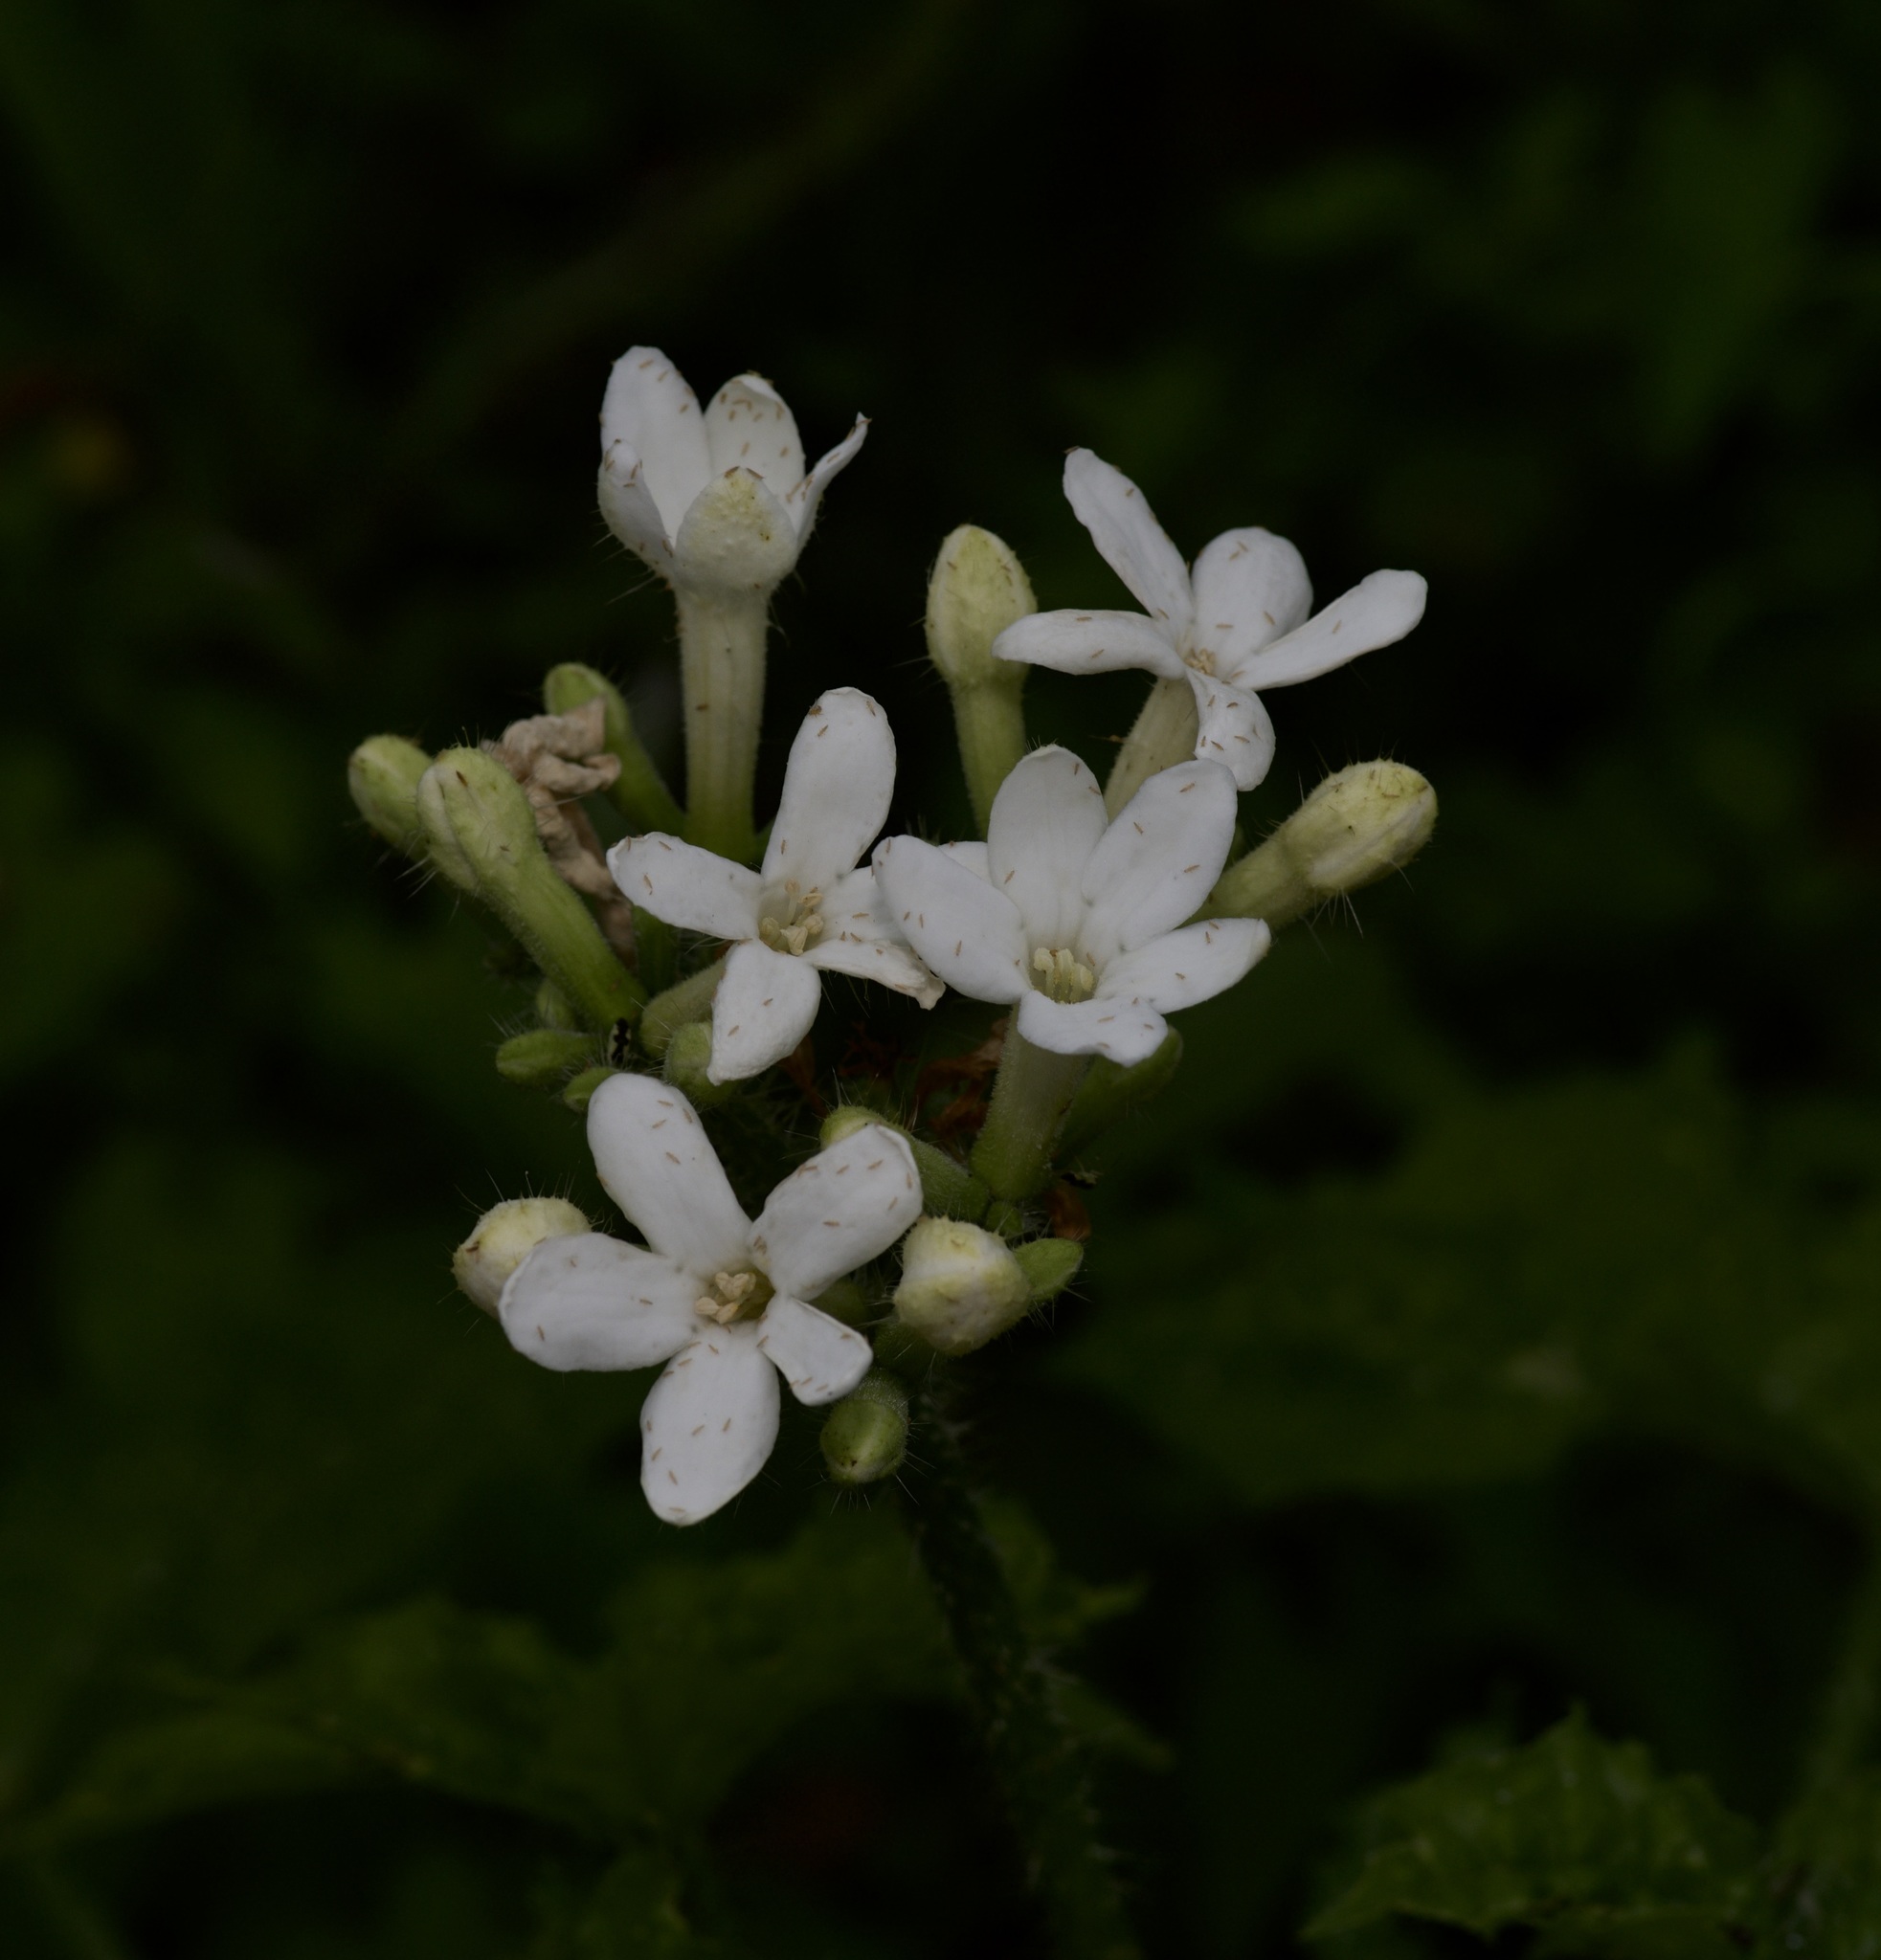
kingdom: Plantae
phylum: Tracheophyta
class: Magnoliopsida
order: Malpighiales
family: Euphorbiaceae
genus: Cnidoscolus
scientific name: Cnidoscolus texanus
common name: Texas bull-nettle
